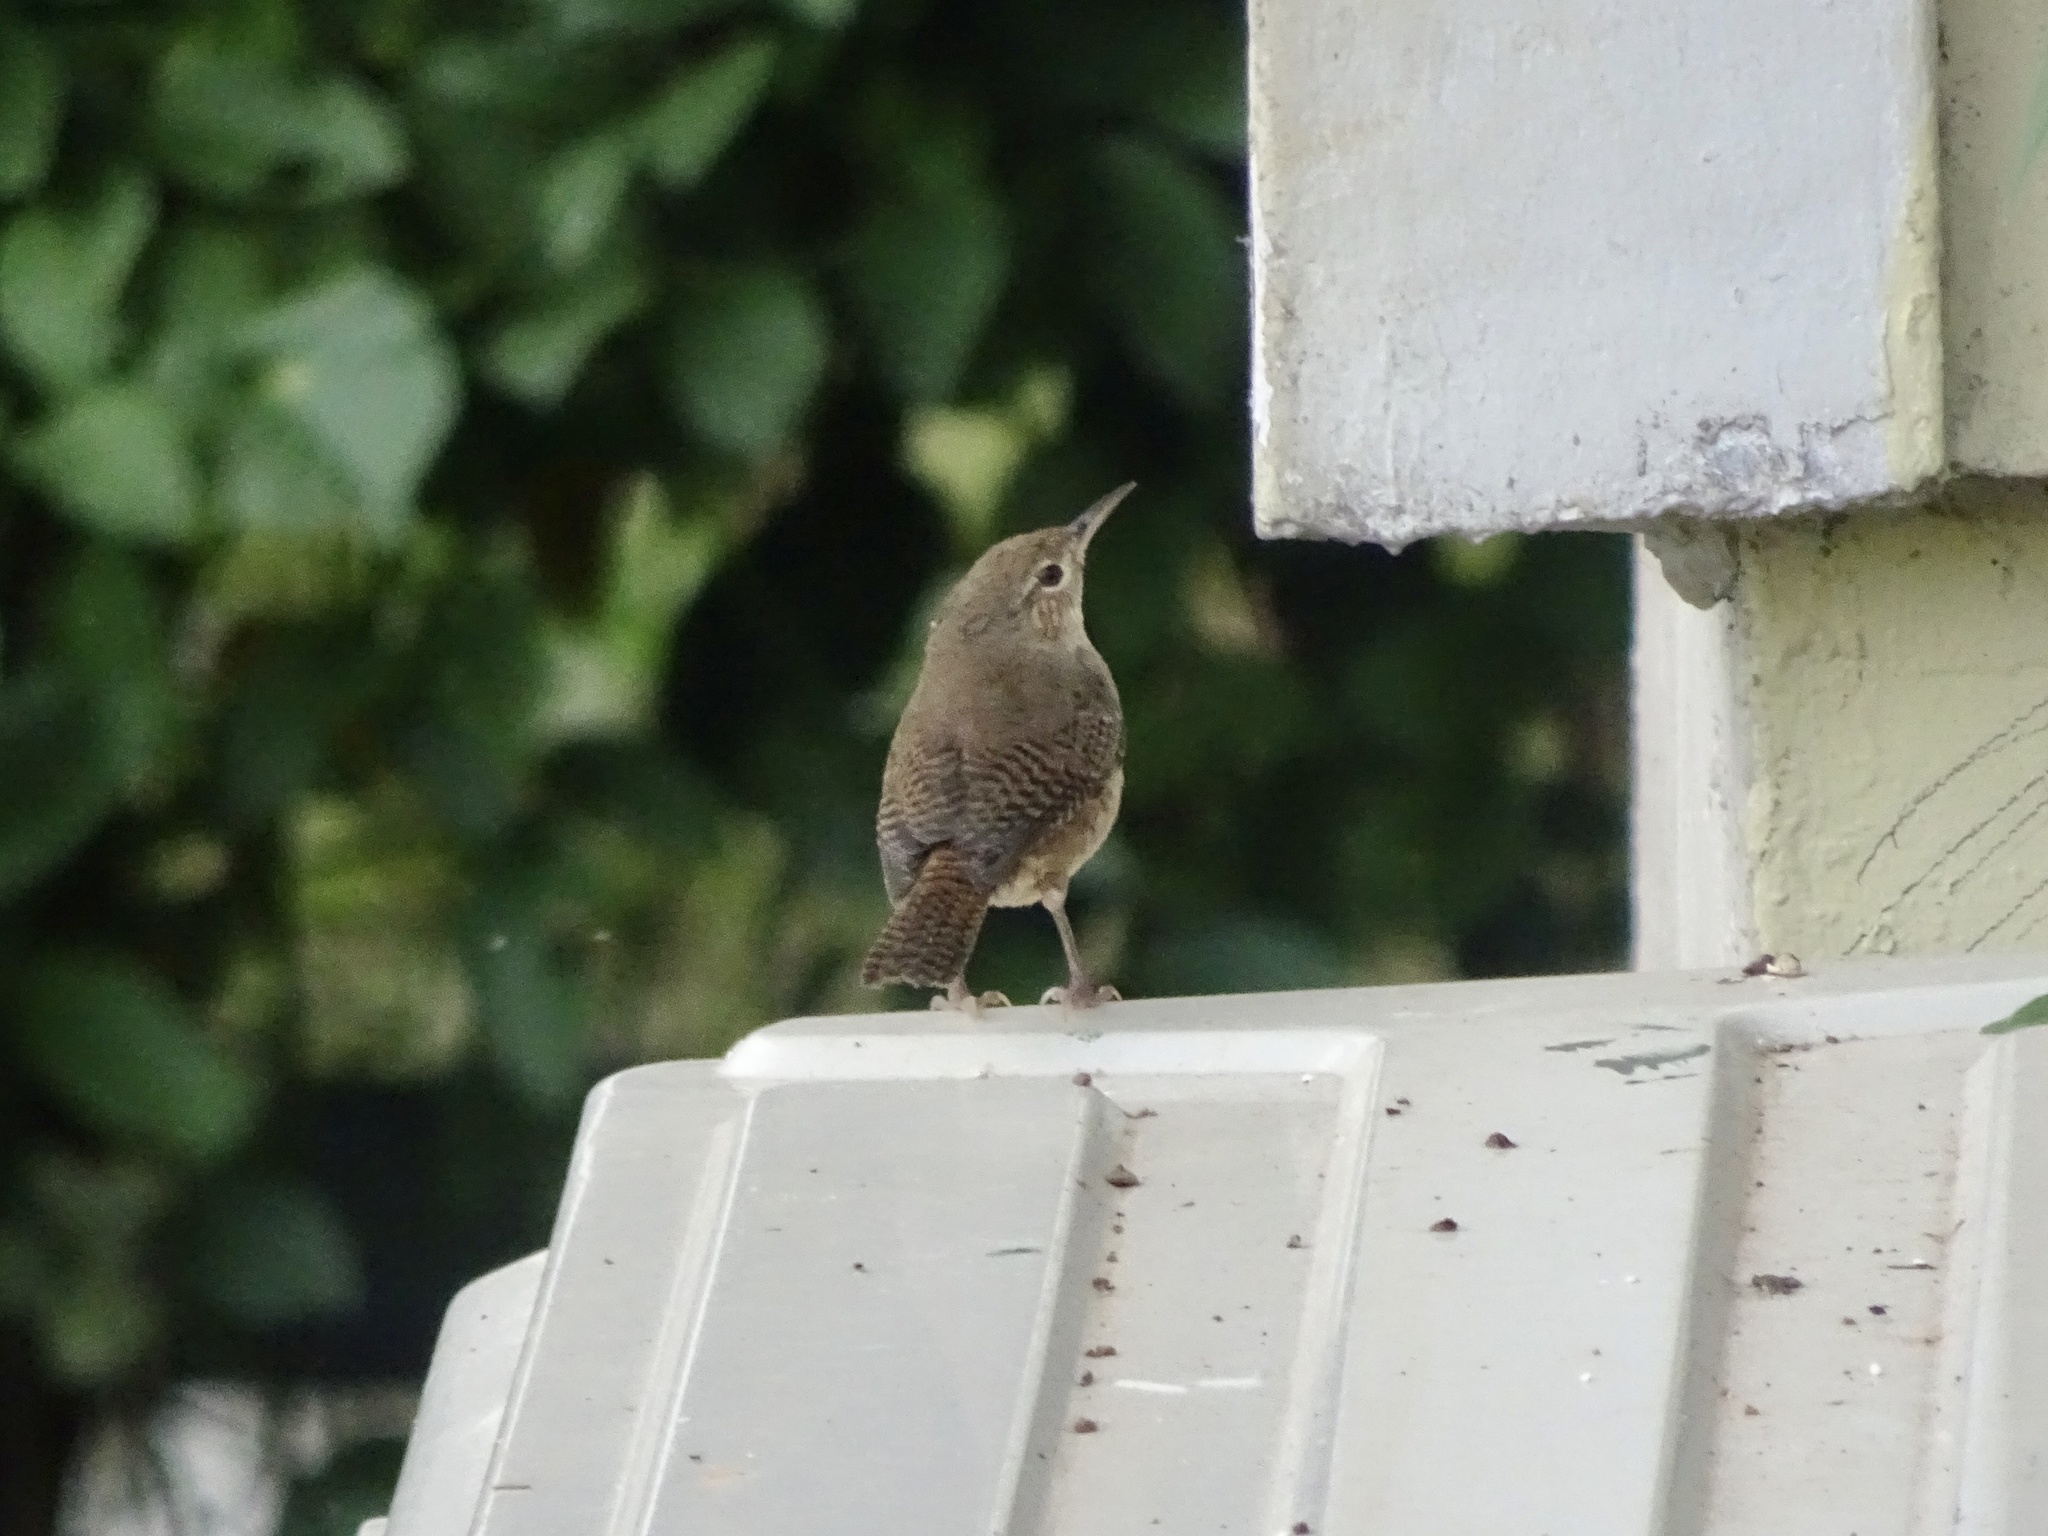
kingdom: Animalia
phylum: Chordata
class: Aves
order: Passeriformes
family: Troglodytidae
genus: Troglodytes
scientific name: Troglodytes aedon
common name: House wren
